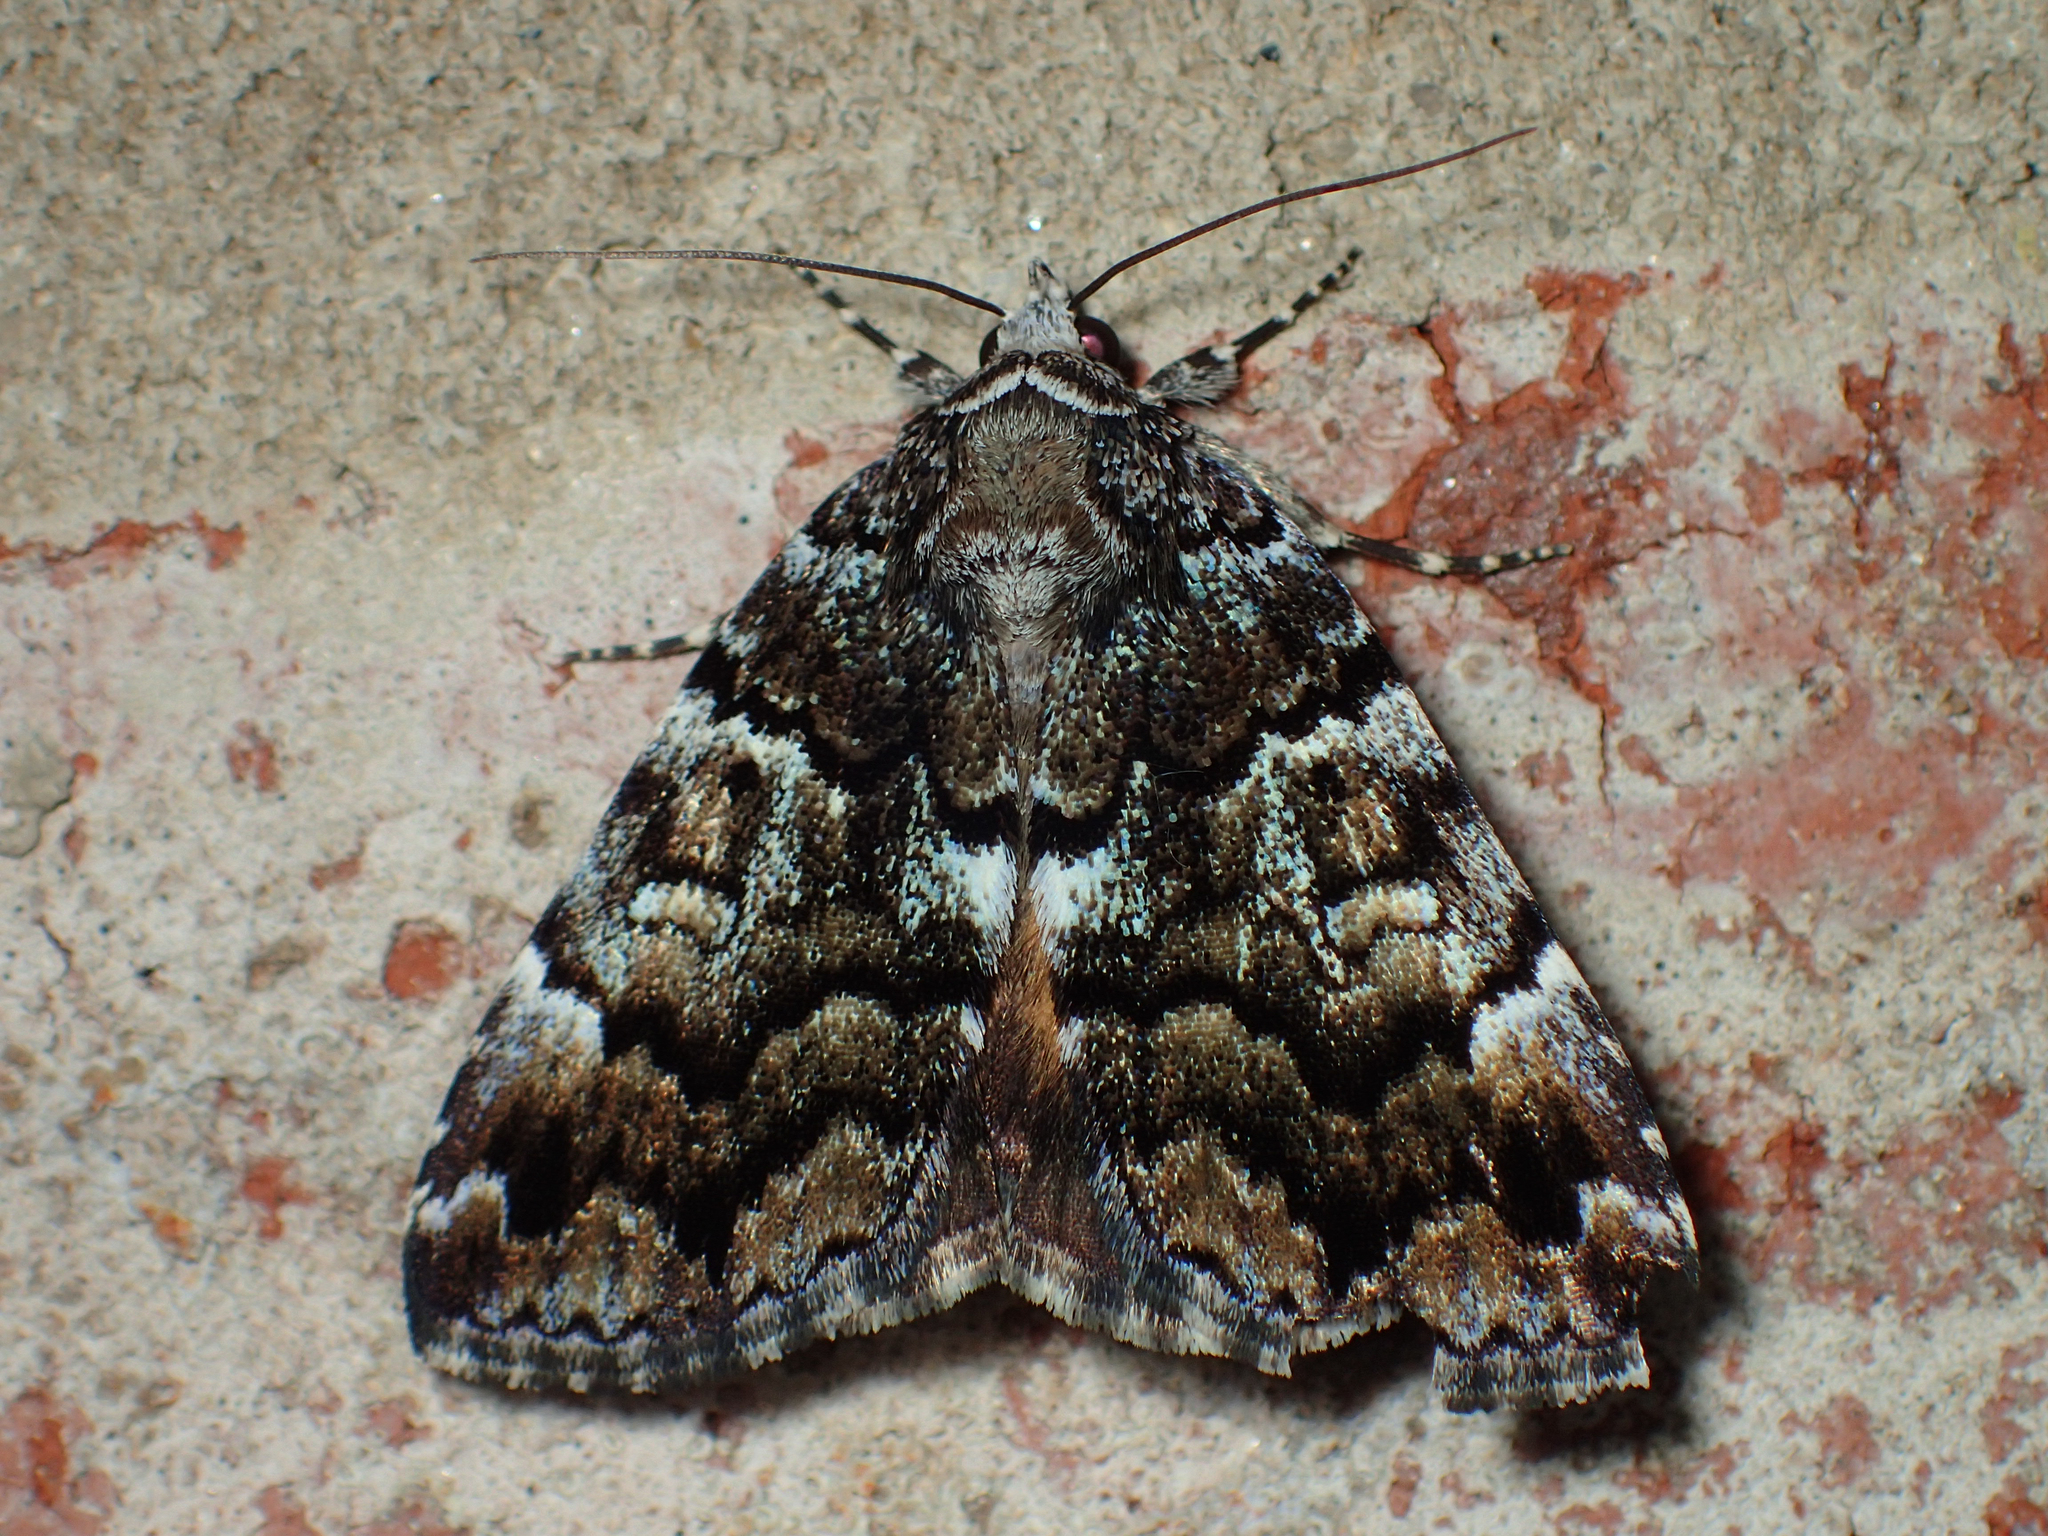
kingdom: Animalia
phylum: Arthropoda
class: Insecta
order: Lepidoptera
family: Erebidae
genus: Allotria
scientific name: Allotria elonympha
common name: False underwing
